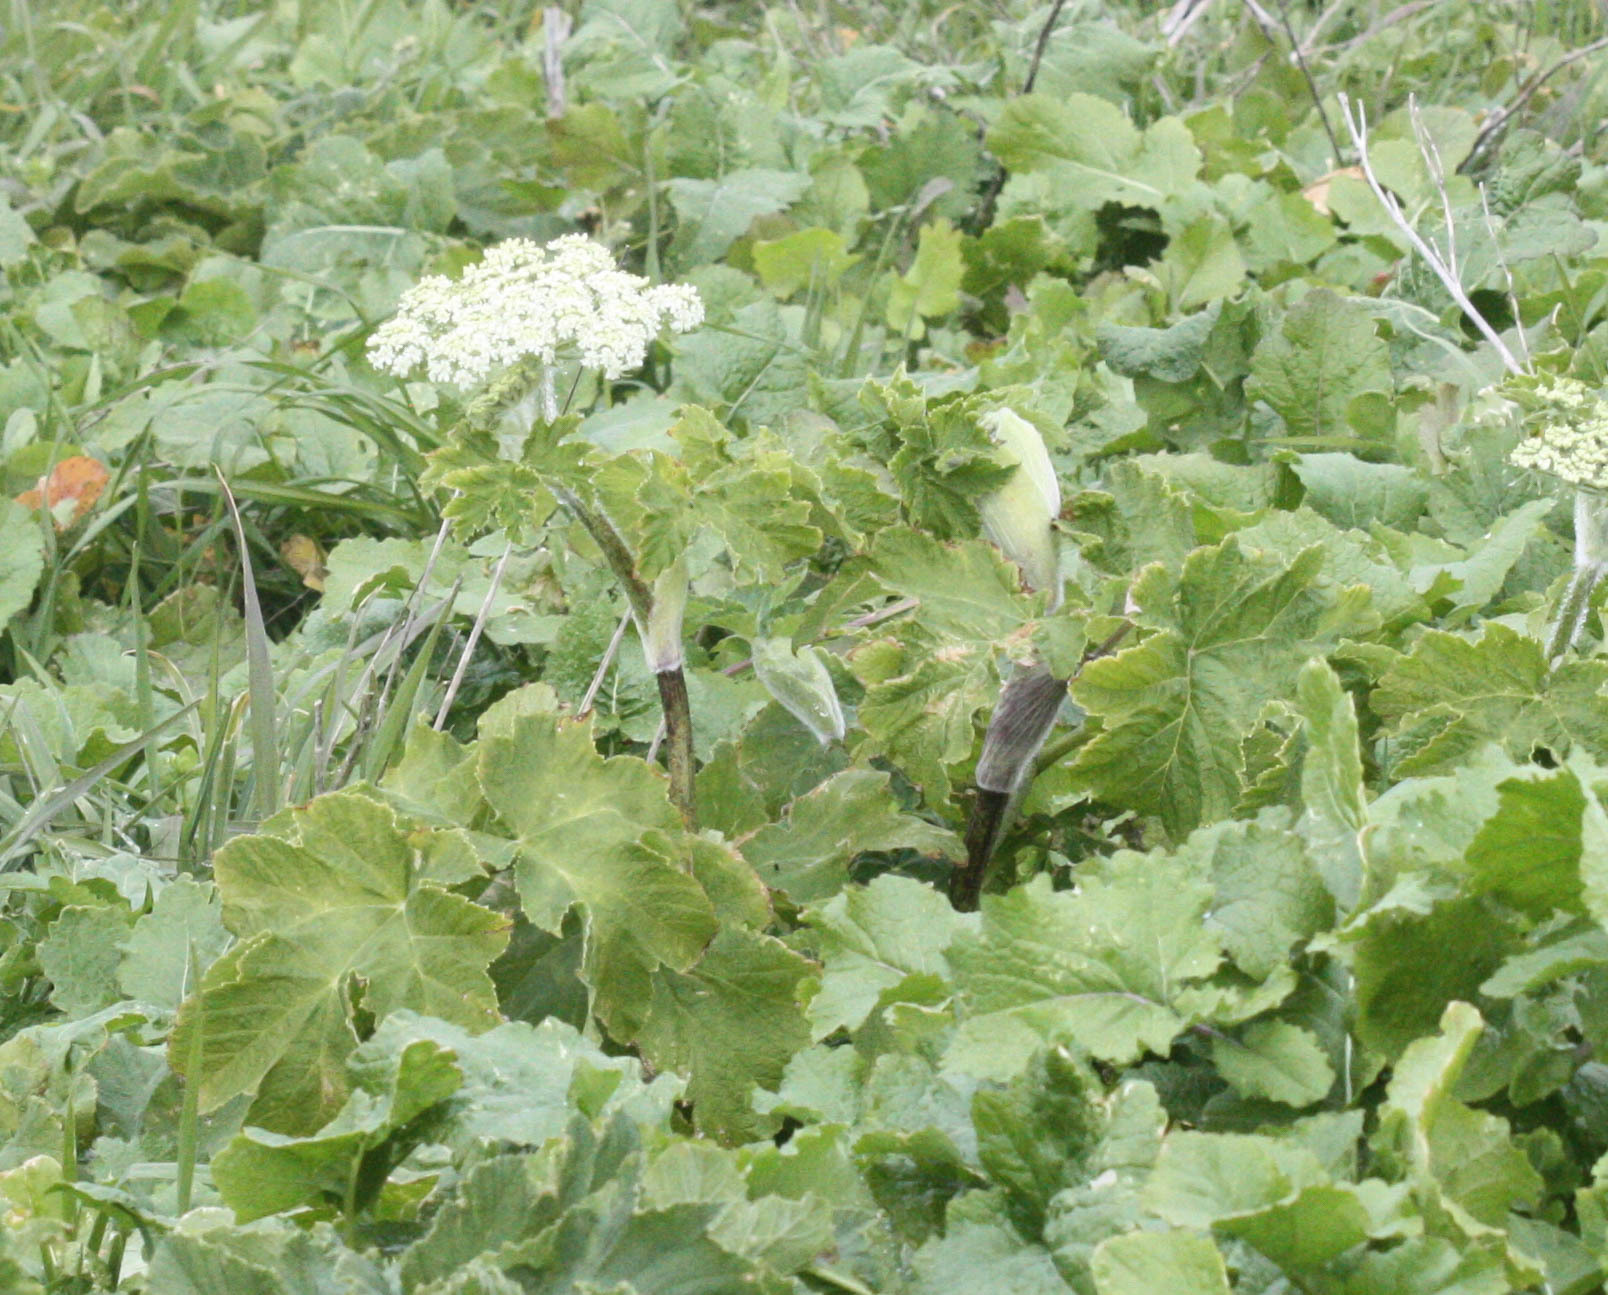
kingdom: Plantae
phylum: Tracheophyta
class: Magnoliopsida
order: Apiales
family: Apiaceae
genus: Heracleum
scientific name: Heracleum maximum
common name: American cow parsnip
